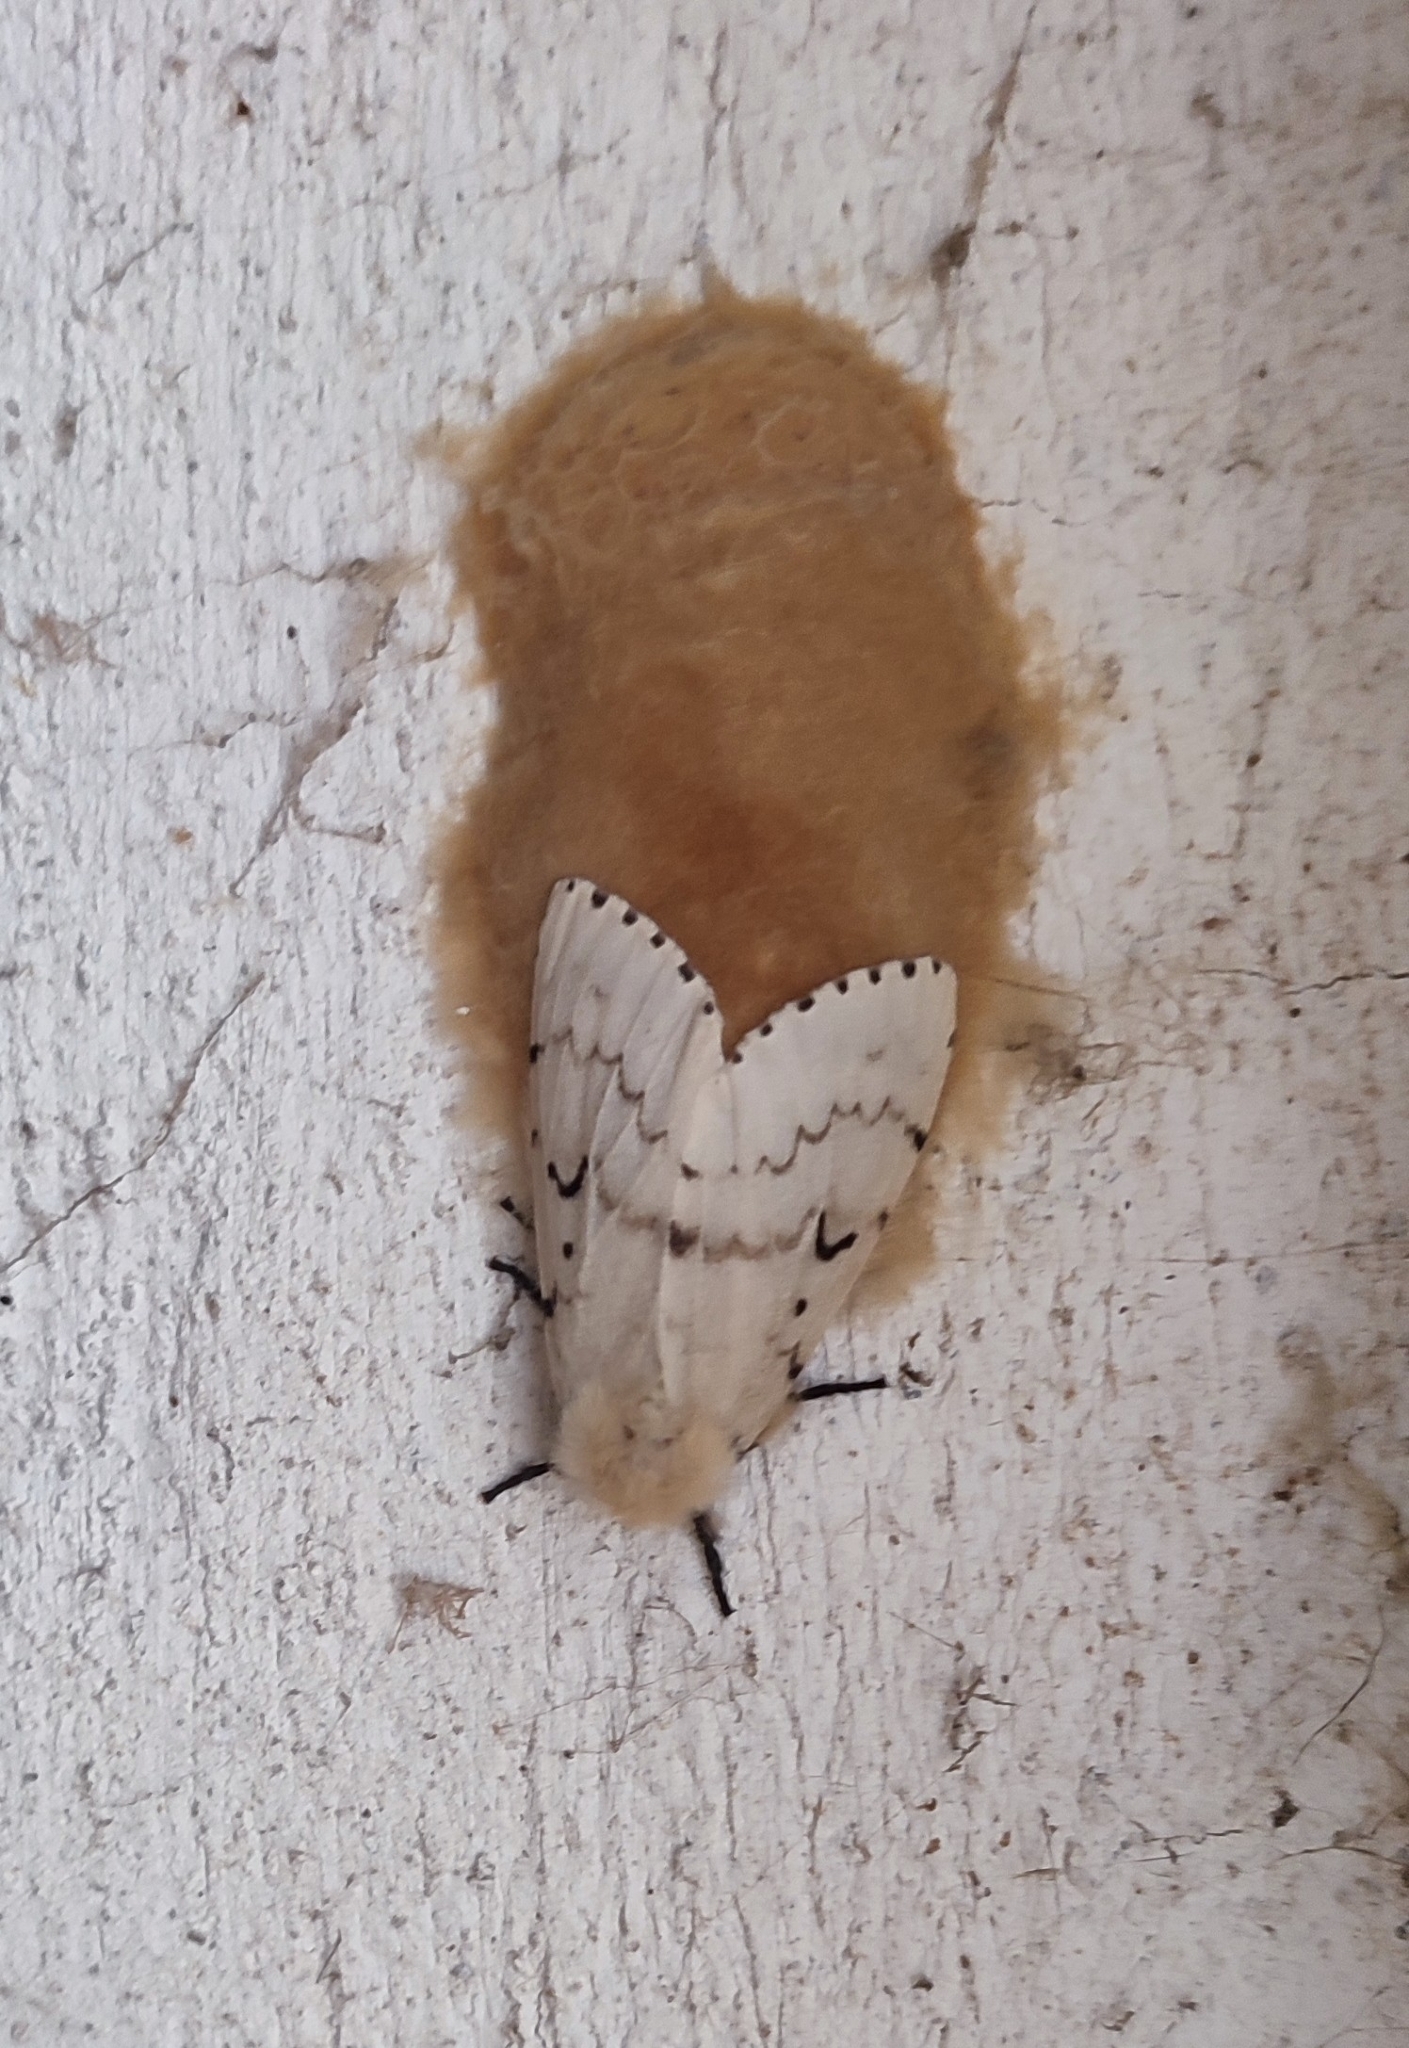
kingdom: Animalia
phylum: Arthropoda
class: Insecta
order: Lepidoptera
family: Erebidae
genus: Lymantria
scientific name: Lymantria dispar
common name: Gypsy moth
